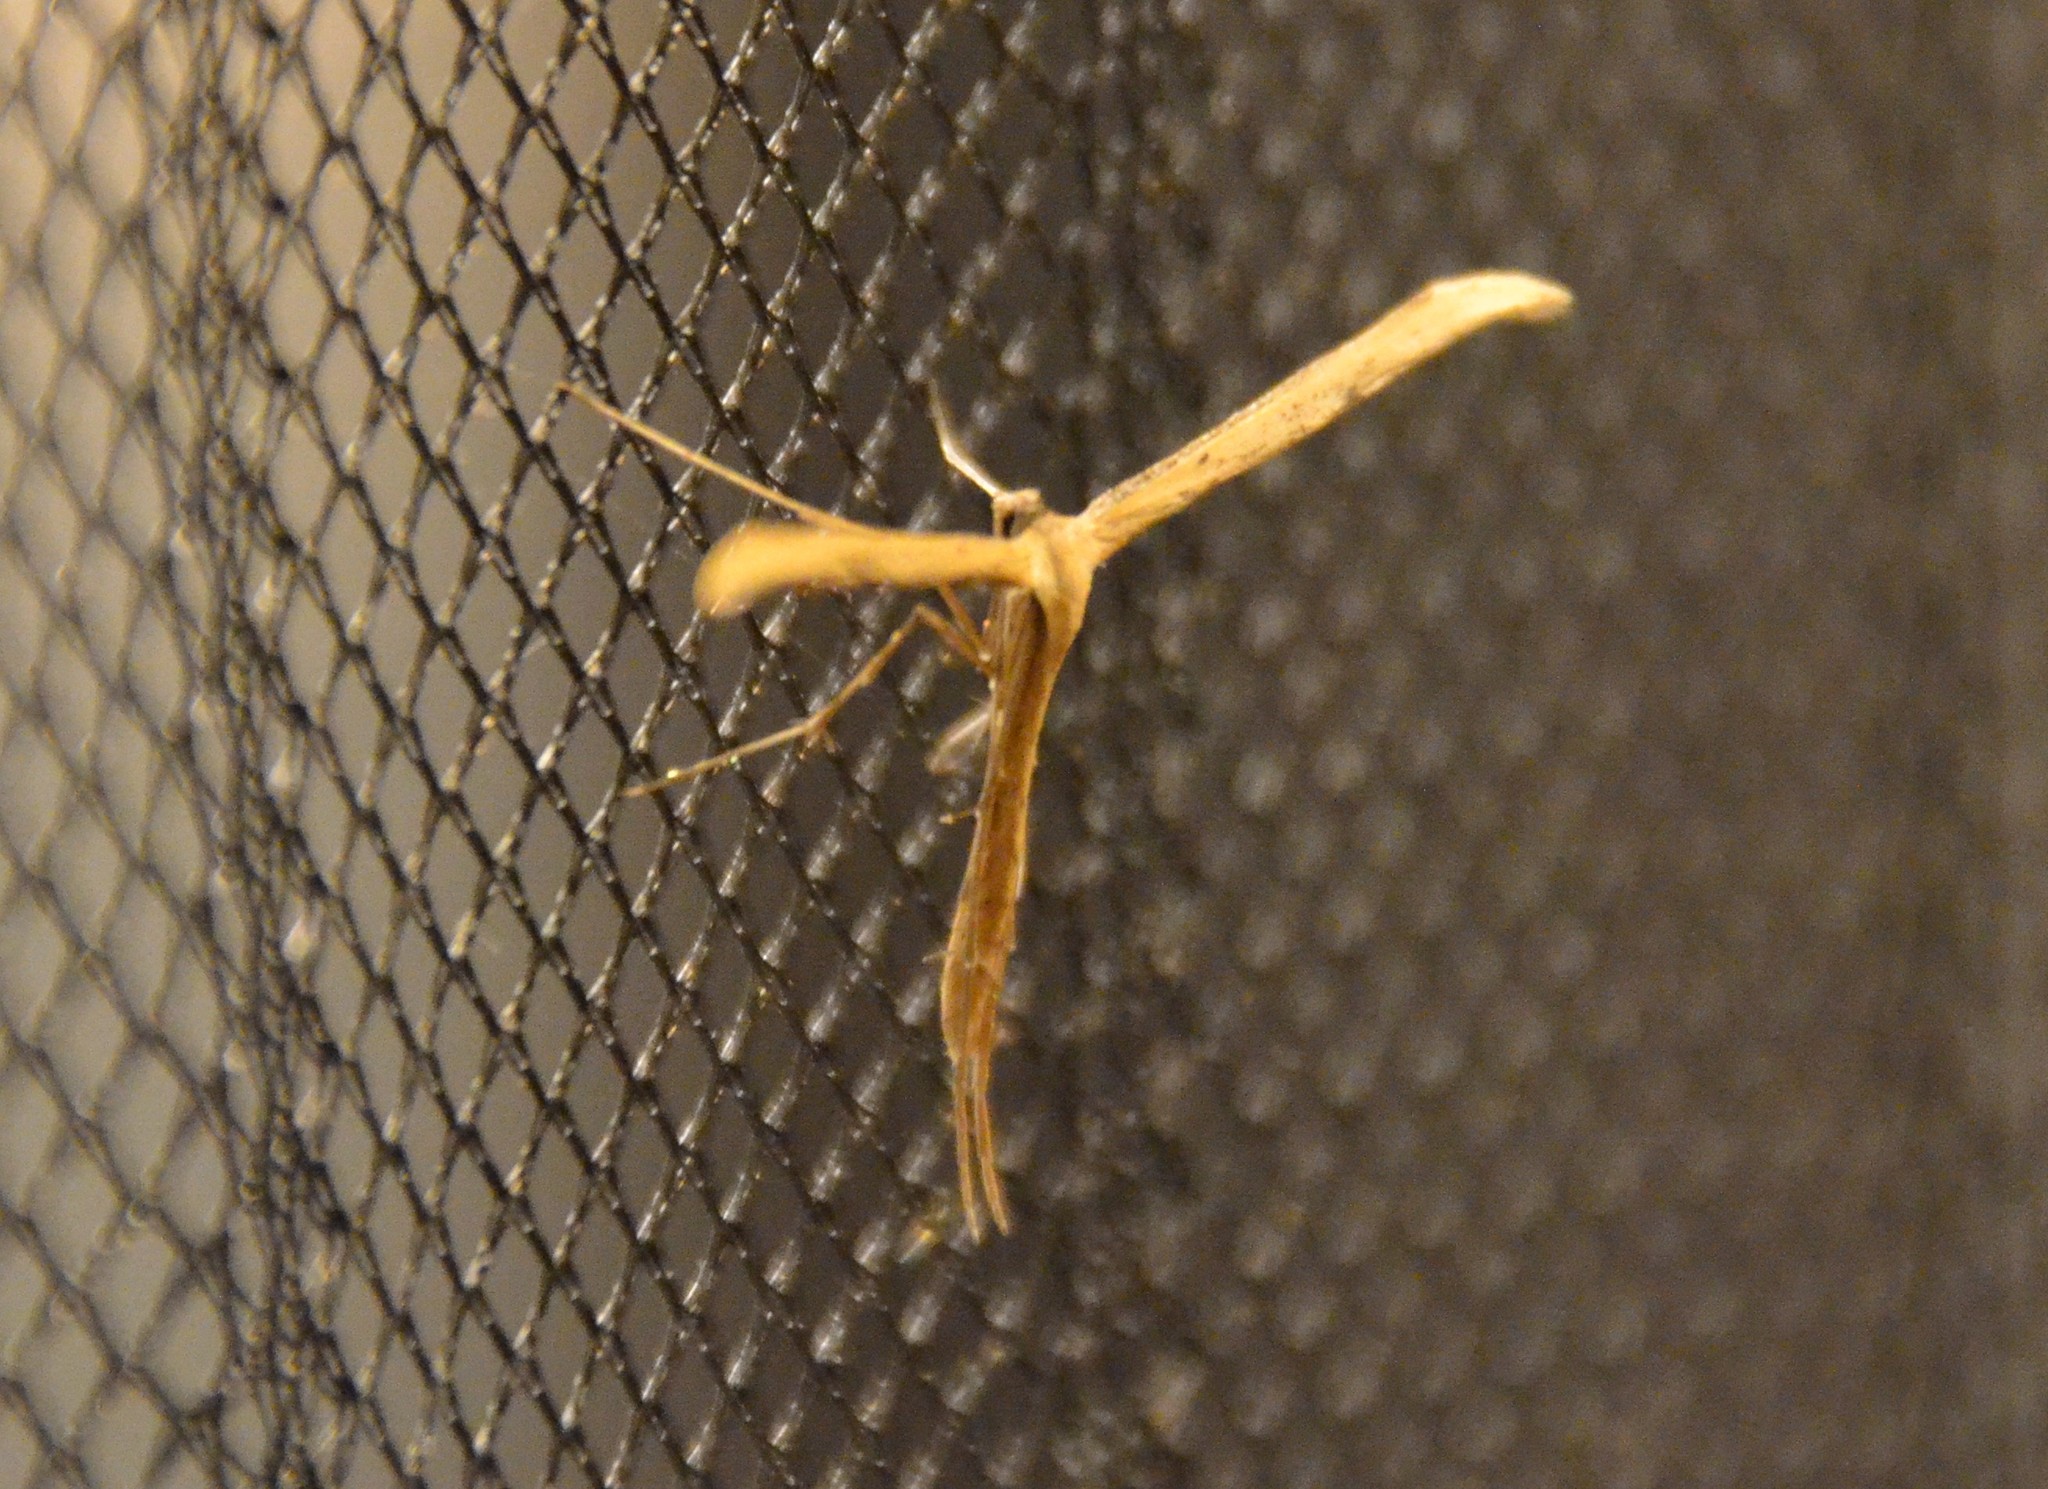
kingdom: Animalia
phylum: Arthropoda
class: Insecta
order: Lepidoptera
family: Pterophoridae
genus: Emmelina
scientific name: Emmelina monodactyla
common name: Common plume
